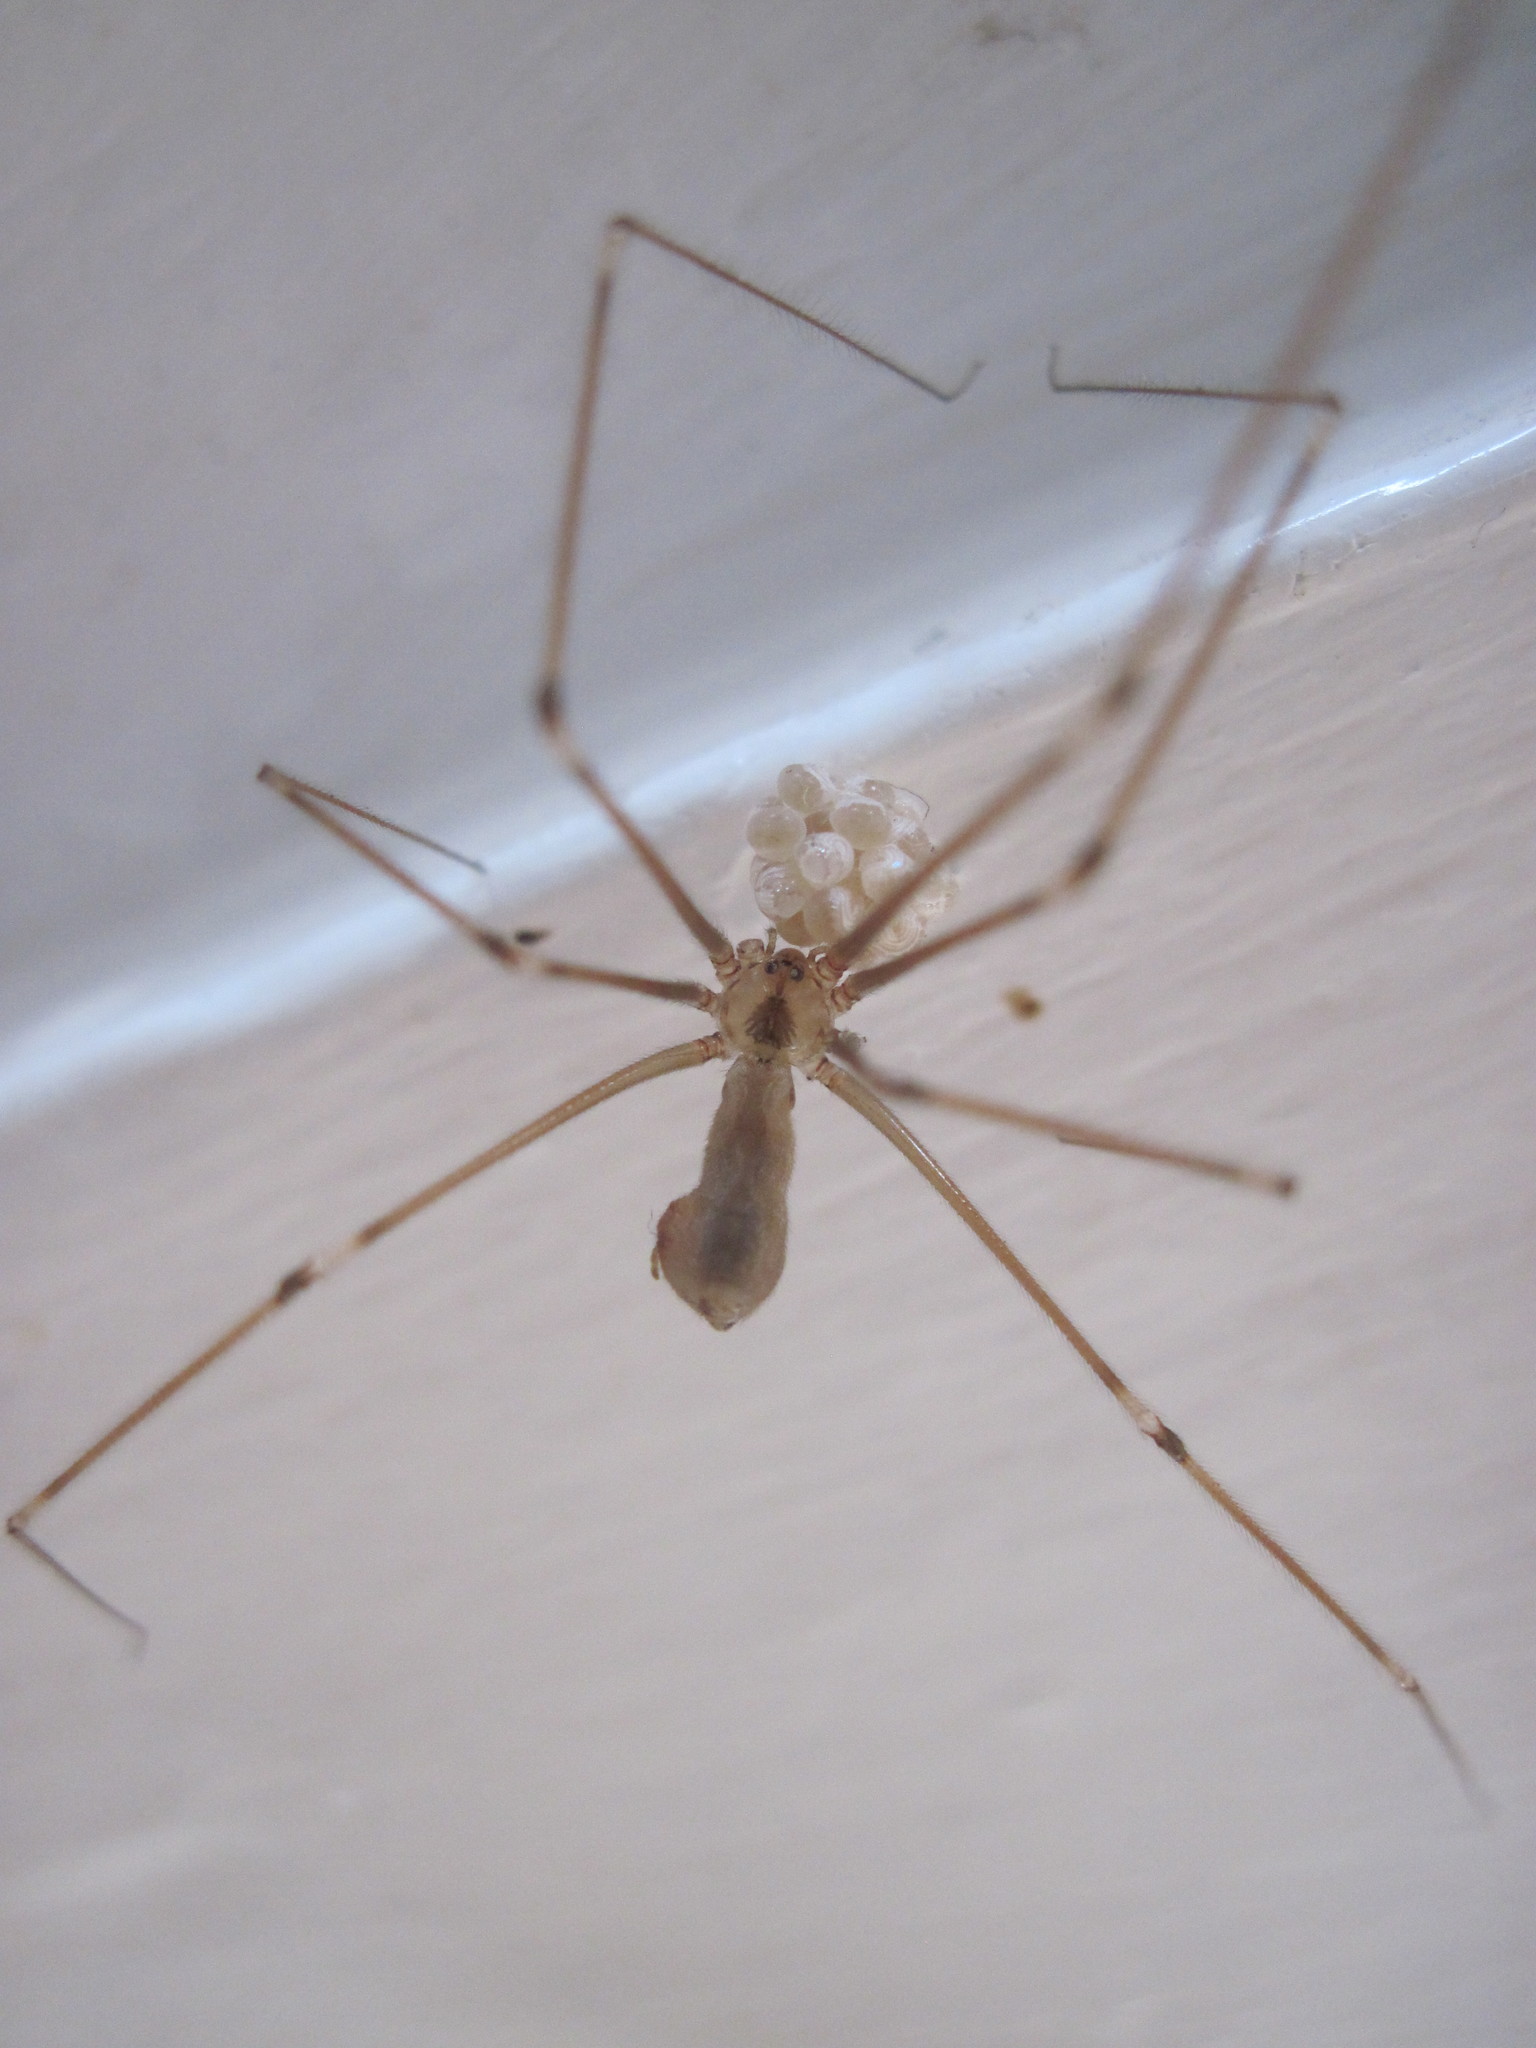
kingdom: Animalia
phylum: Arthropoda
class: Arachnida
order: Araneae
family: Pholcidae
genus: Pholcus
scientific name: Pholcus phalangioides
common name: Longbodied cellar spider
